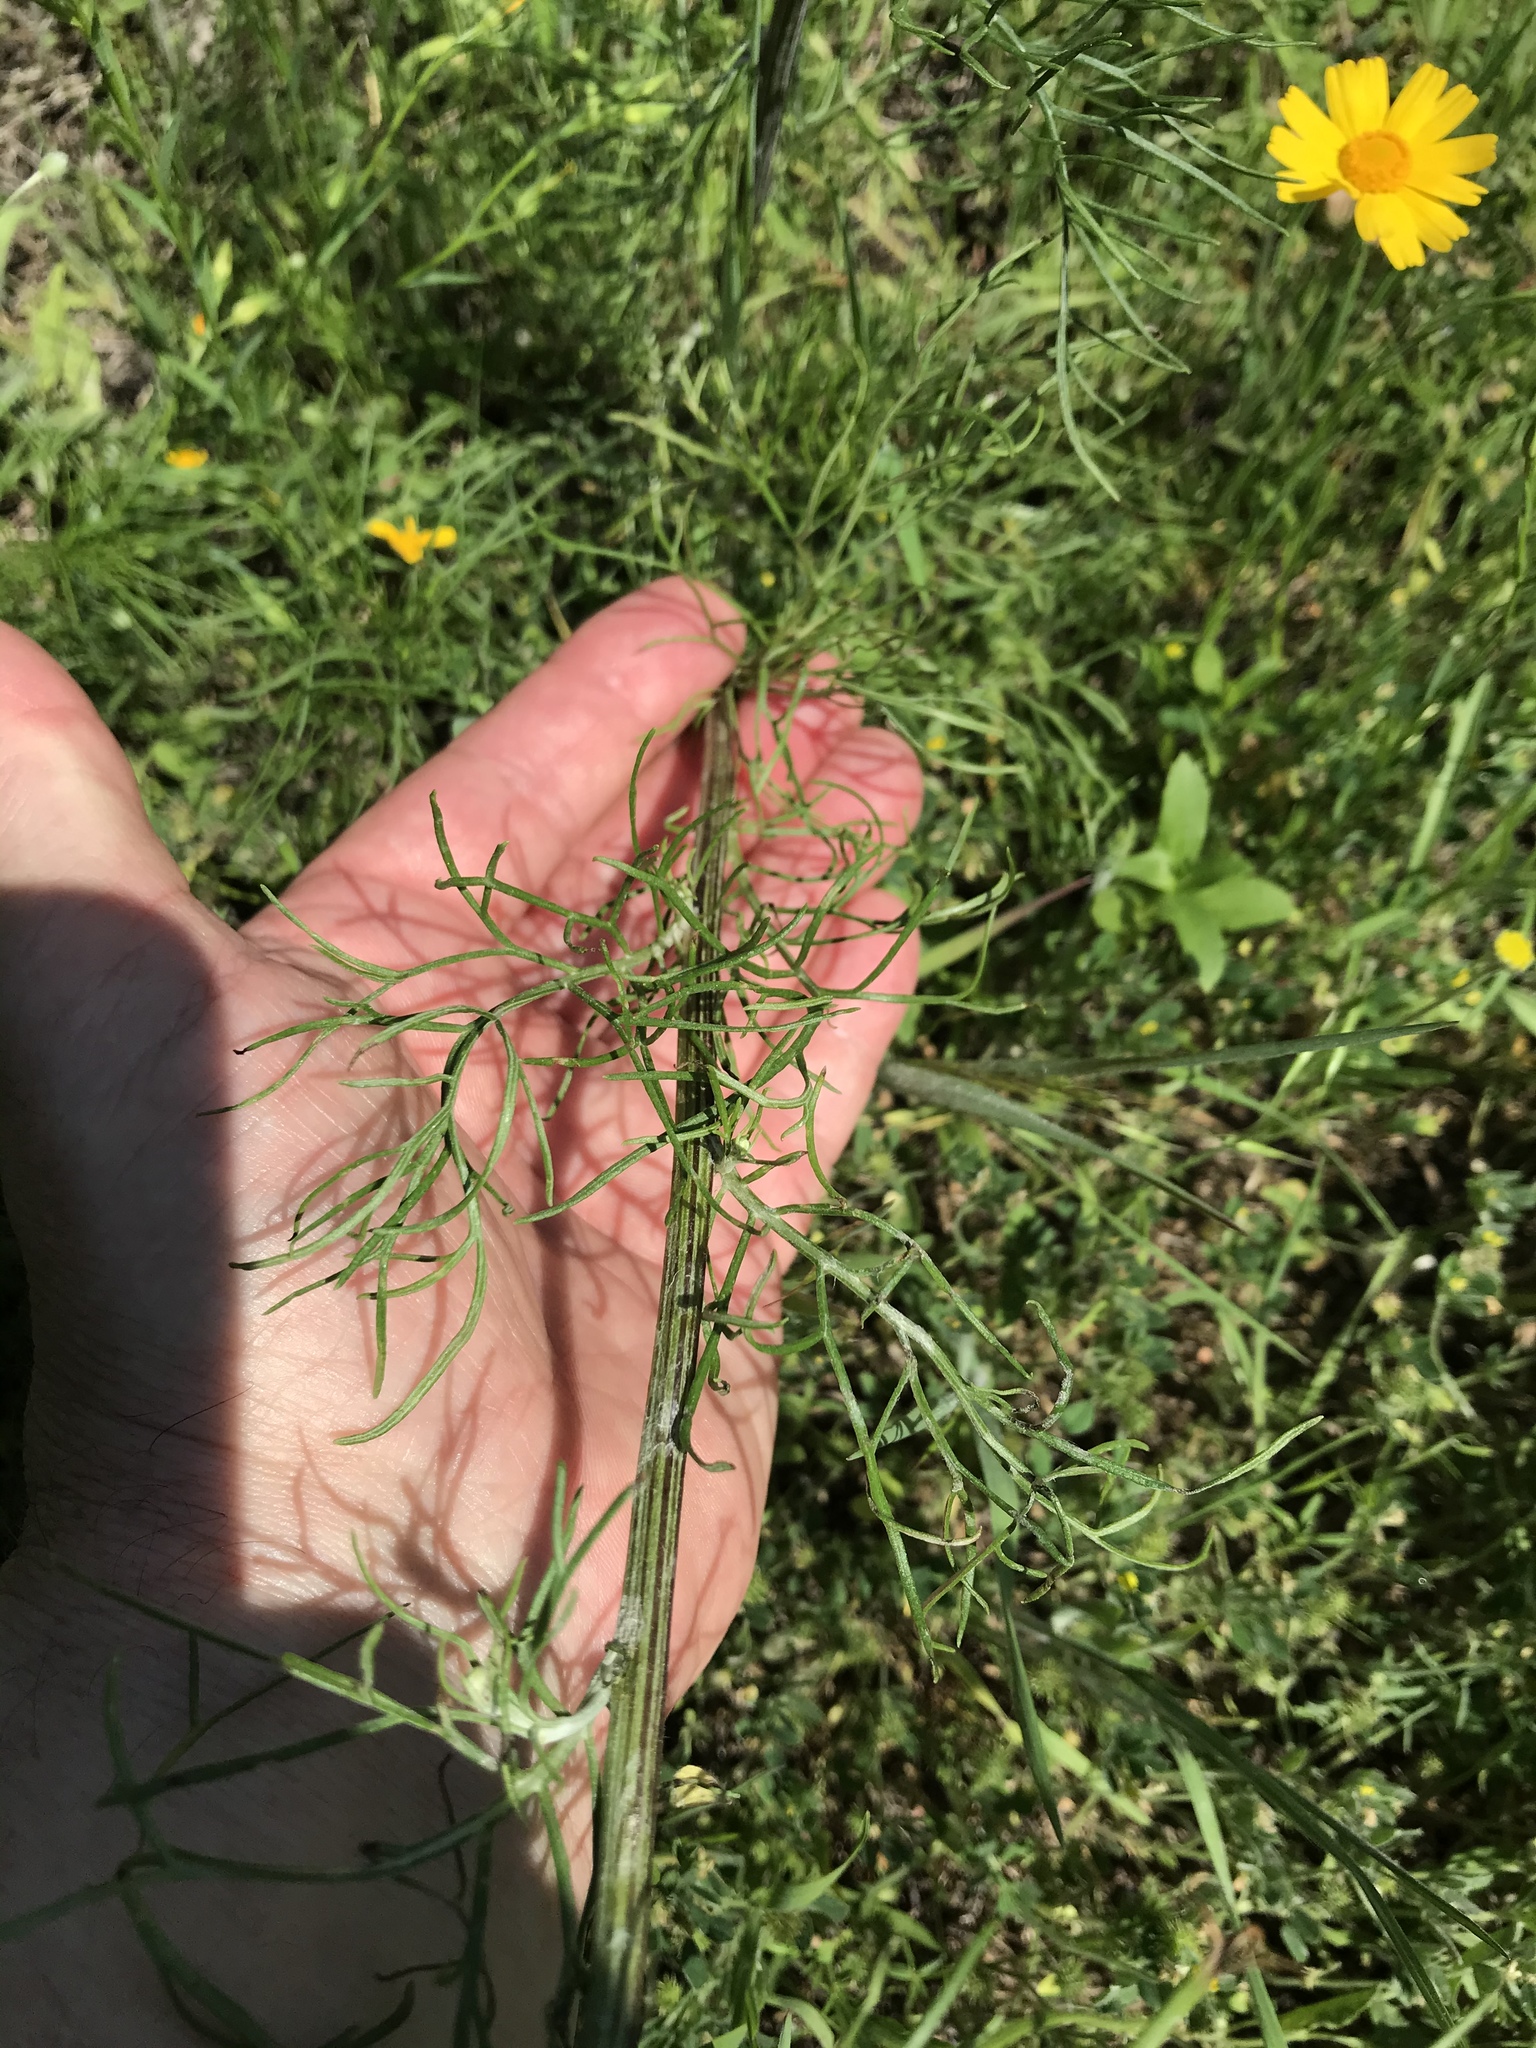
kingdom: Plantae
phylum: Tracheophyta
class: Magnoliopsida
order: Asterales
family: Asteraceae
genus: Hymenopappus
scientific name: Hymenopappus tenuifolius
